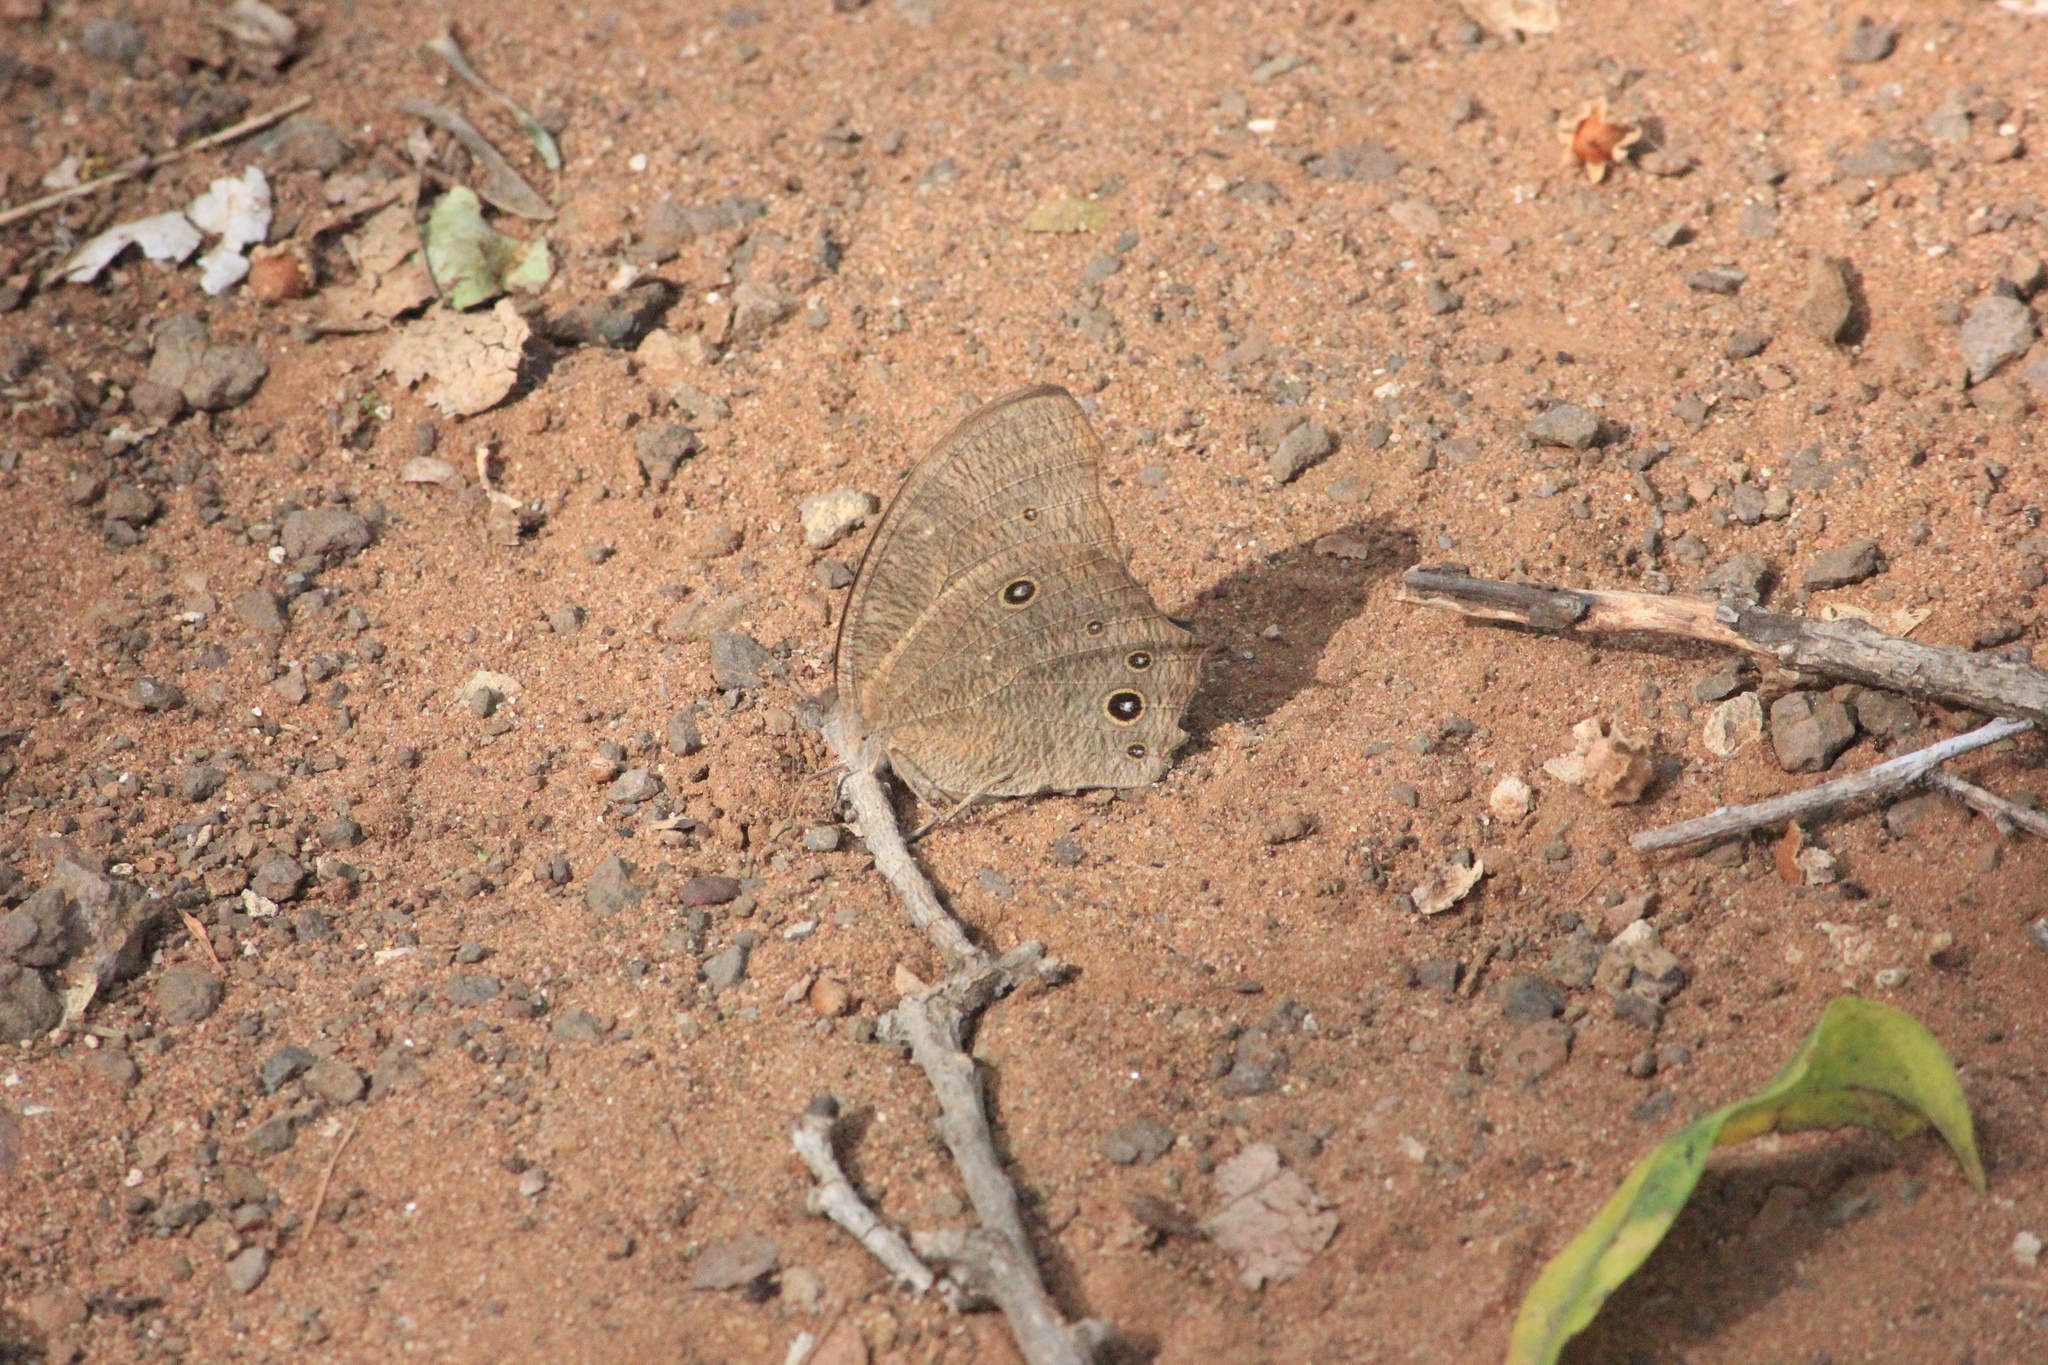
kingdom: Animalia
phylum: Arthropoda
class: Insecta
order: Lepidoptera
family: Nymphalidae
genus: Melanitis
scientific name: Melanitis leda
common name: Twilight brown
